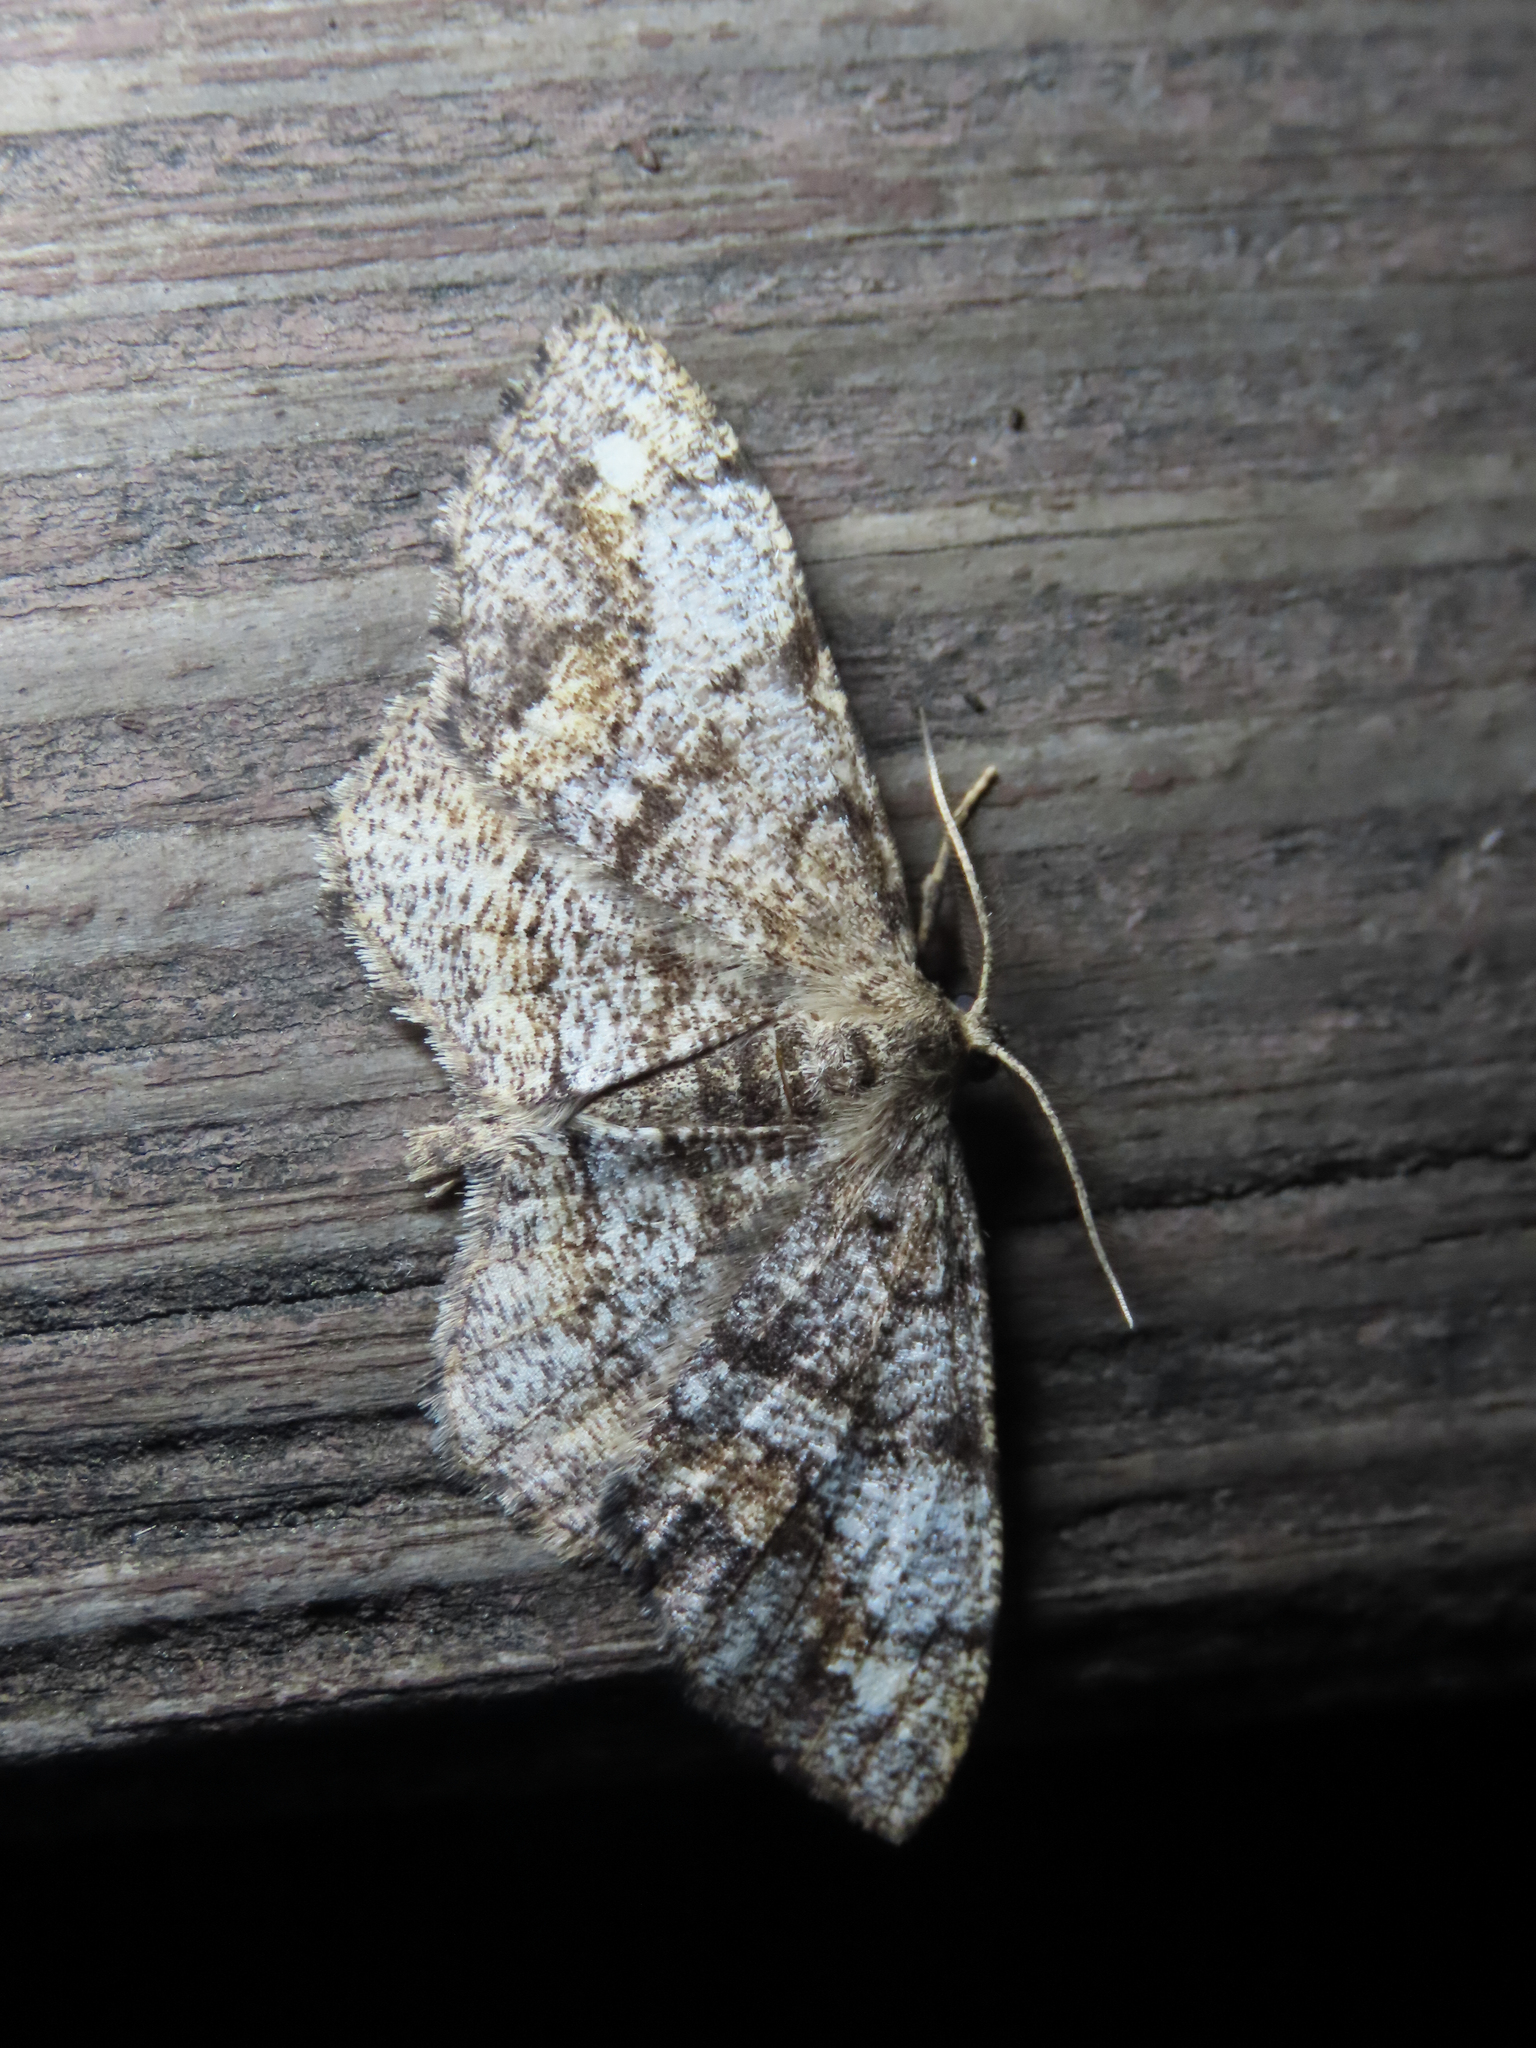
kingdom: Animalia
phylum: Arthropoda
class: Insecta
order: Lepidoptera
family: Geometridae
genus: Hypagyrtis
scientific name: Hypagyrtis unipunctata
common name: One-spotted variant
